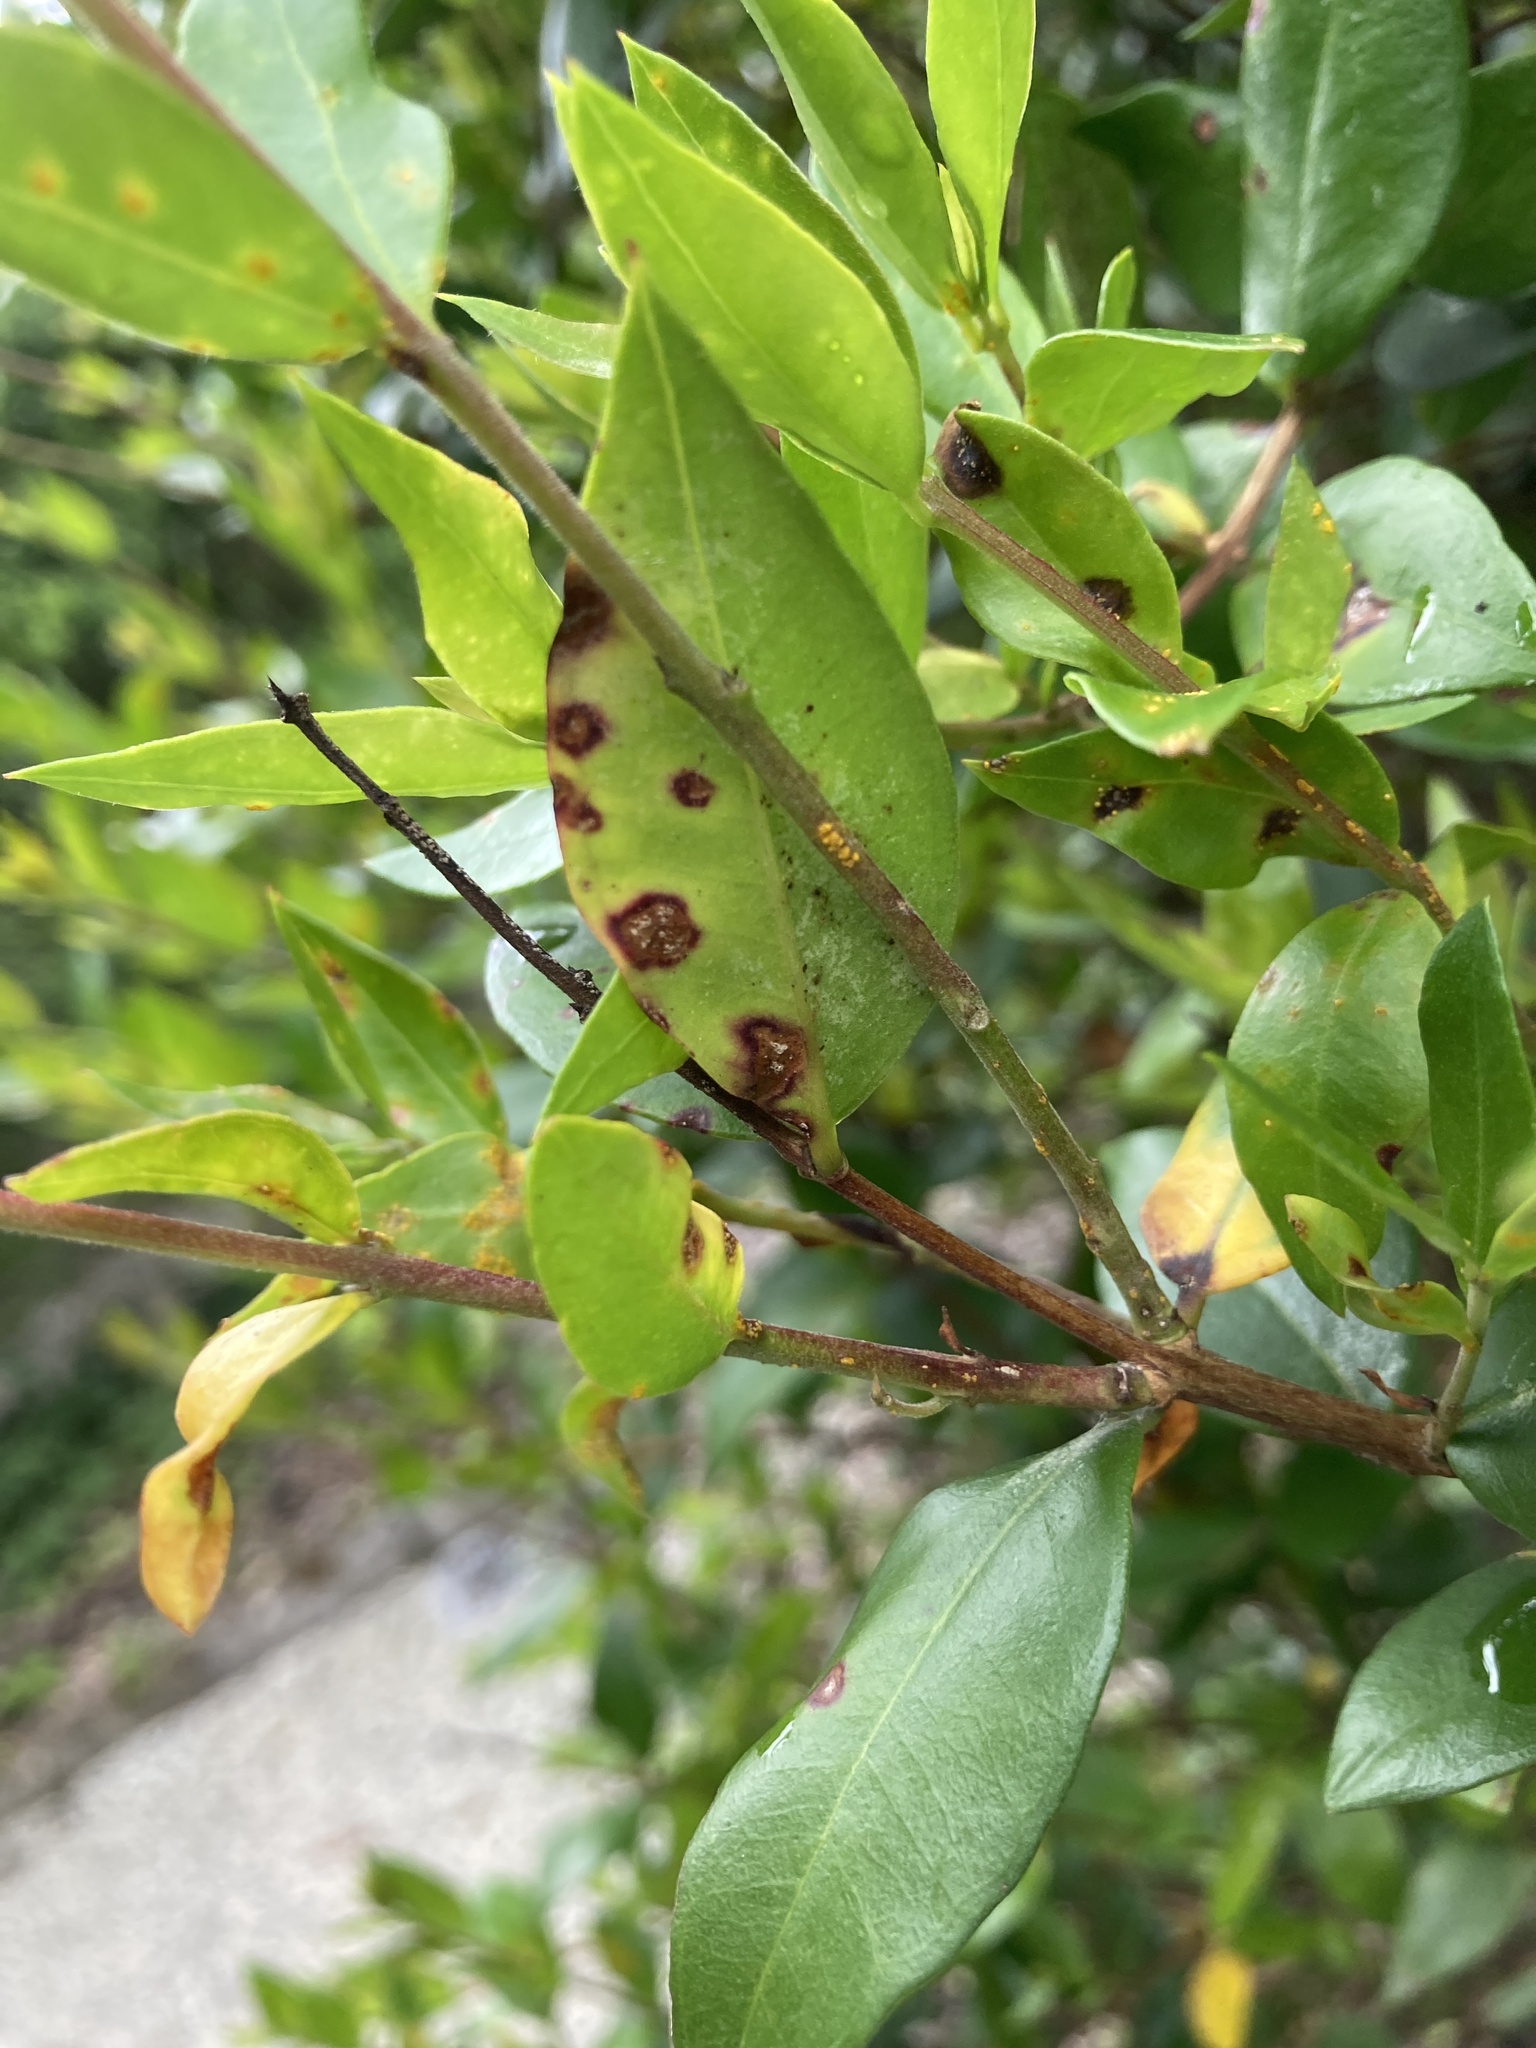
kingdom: Fungi
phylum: Basidiomycota
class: Pucciniomycetes
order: Pucciniales
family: Sphaerophragmiaceae
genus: Austropuccinia
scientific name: Austropuccinia psidii
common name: Myrtle rust
